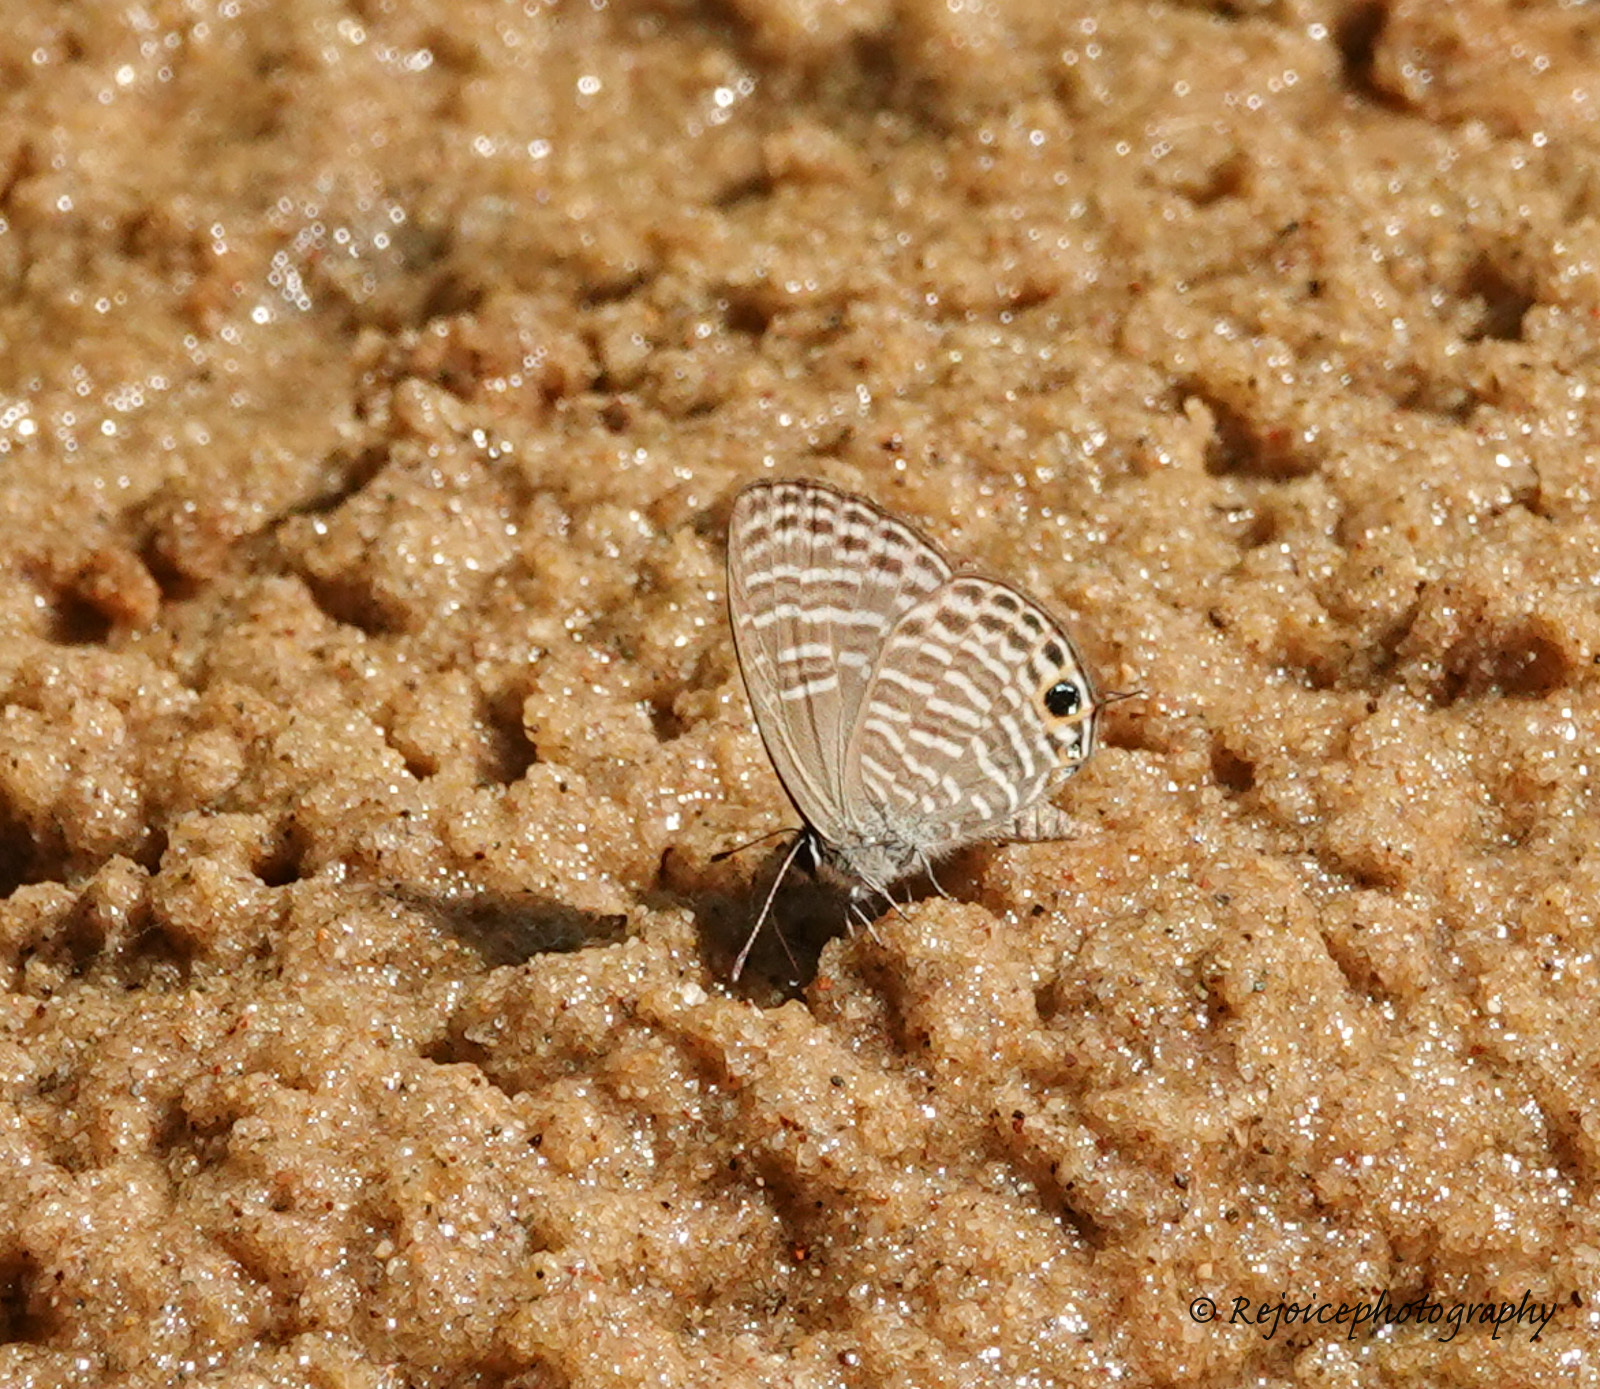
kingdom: Animalia
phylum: Arthropoda
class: Insecta
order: Lepidoptera
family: Lycaenidae
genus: Nacaduba
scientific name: Nacaduba pactolus
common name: Large fourline blue
